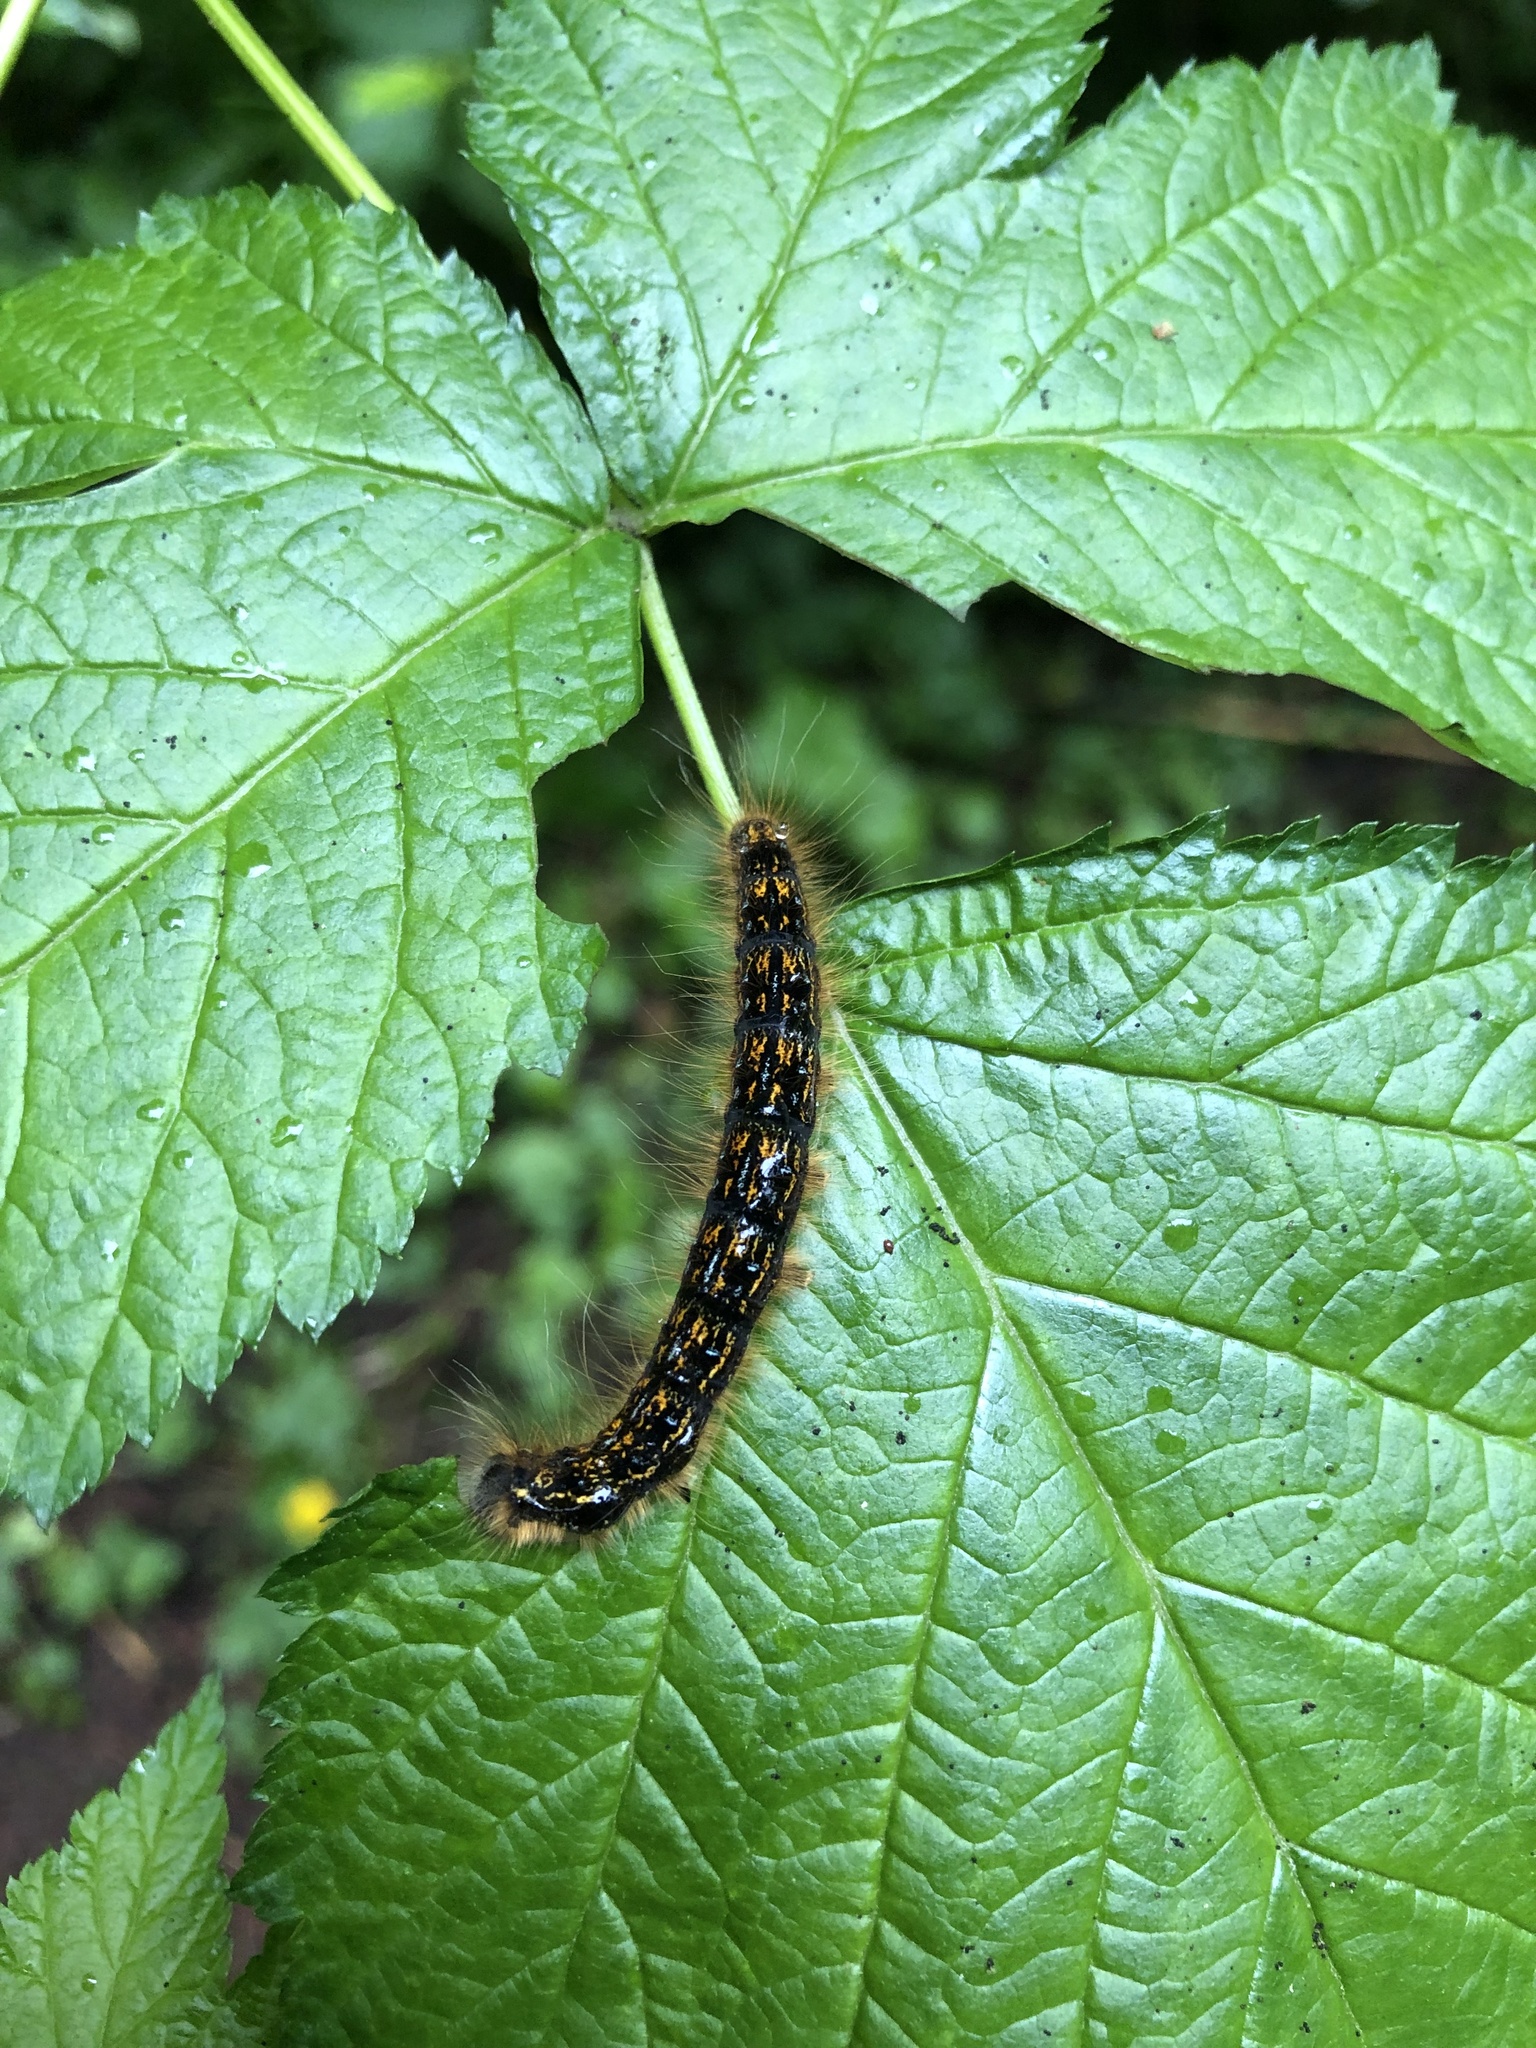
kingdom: Animalia
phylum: Arthropoda
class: Insecta
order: Lepidoptera
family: Lasiocampidae
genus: Malacosoma
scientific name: Malacosoma californica
